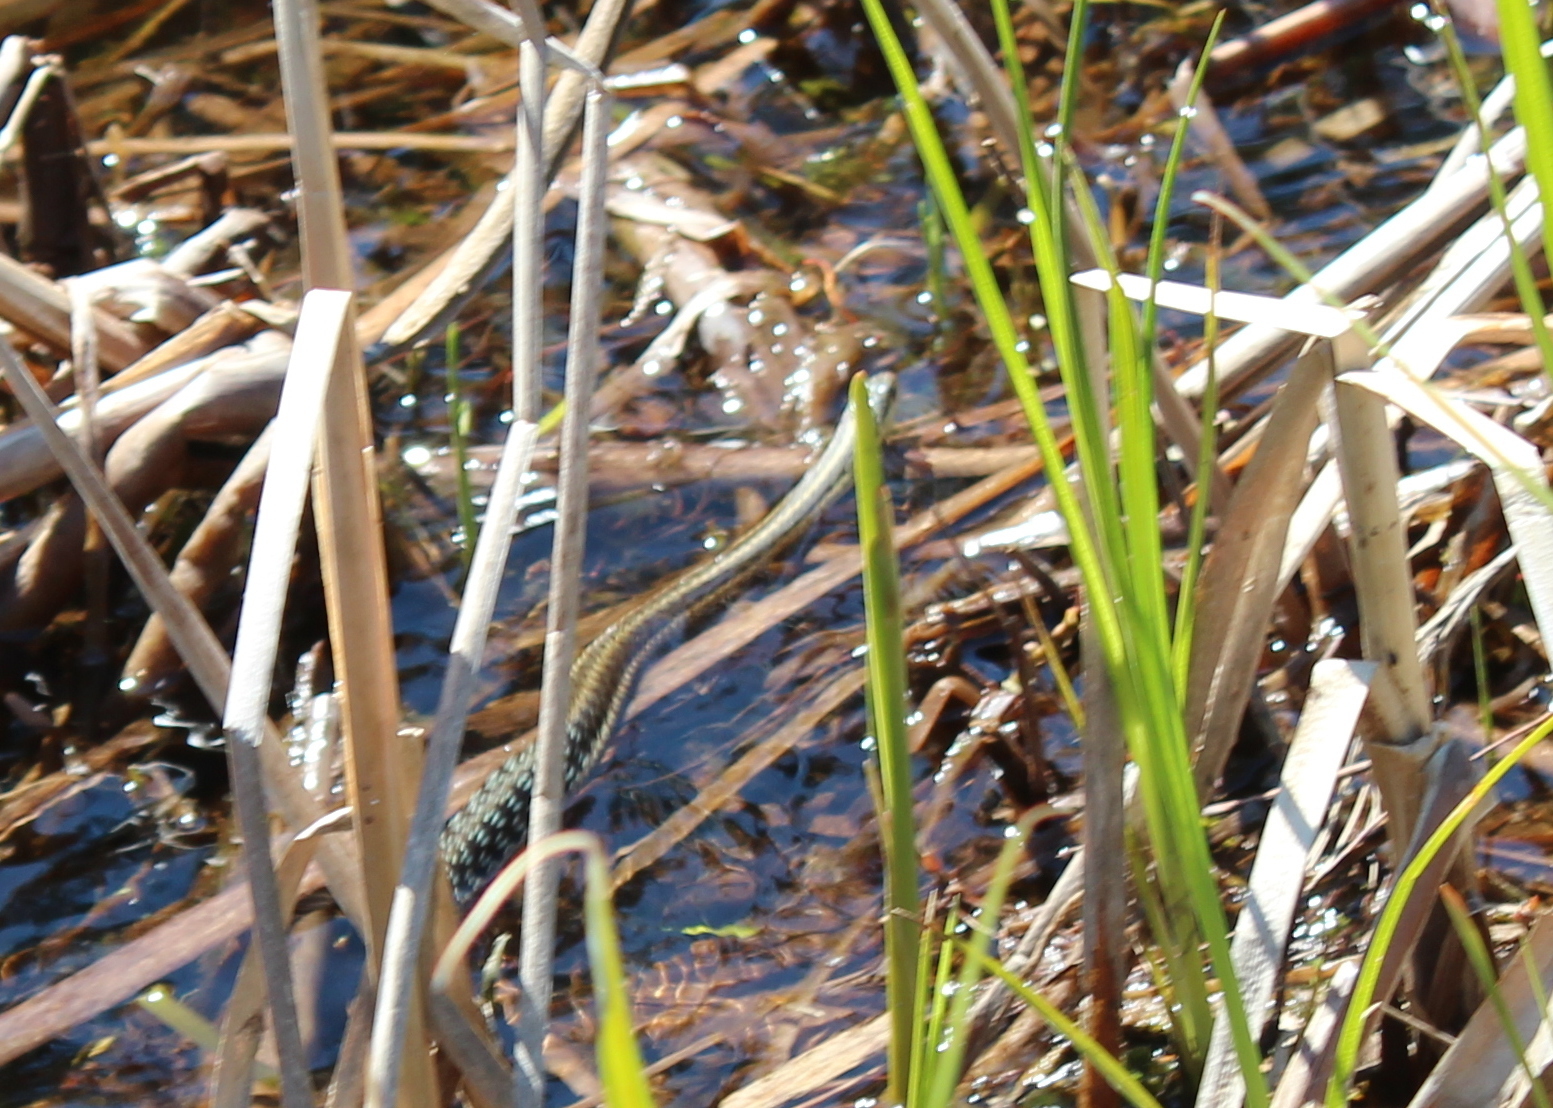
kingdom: Animalia
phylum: Chordata
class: Squamata
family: Colubridae
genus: Thamnophis
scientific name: Thamnophis sirtalis
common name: Common garter snake
